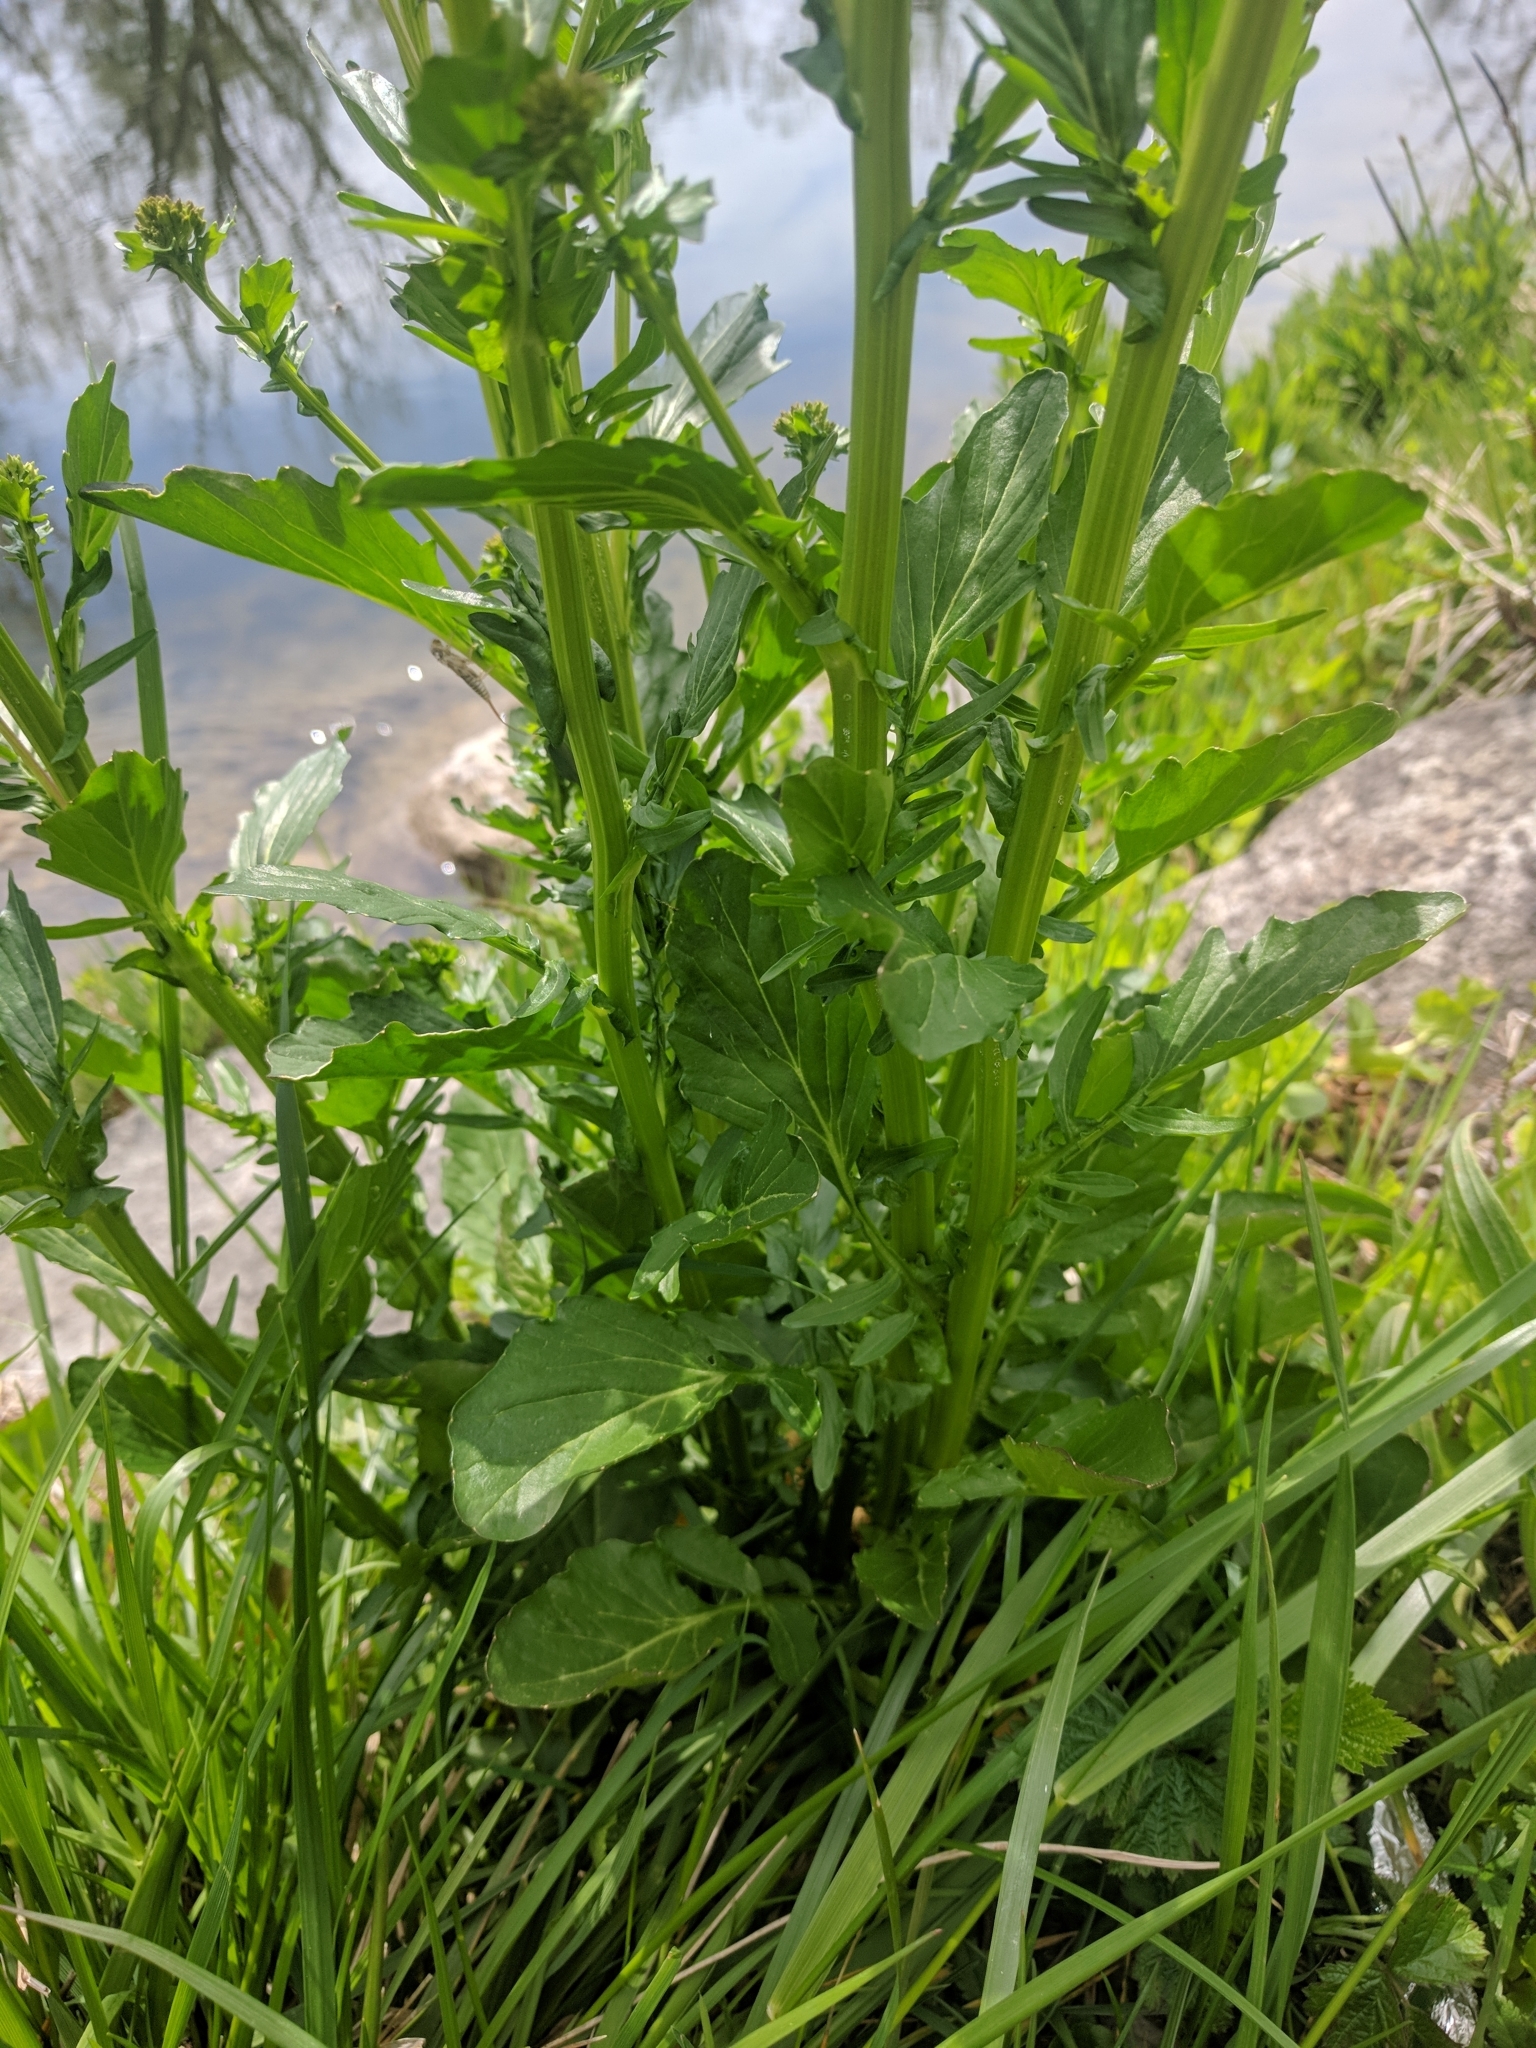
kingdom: Plantae
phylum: Tracheophyta
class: Magnoliopsida
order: Brassicales
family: Brassicaceae
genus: Barbarea
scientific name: Barbarea vulgaris
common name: Cressy-greens
